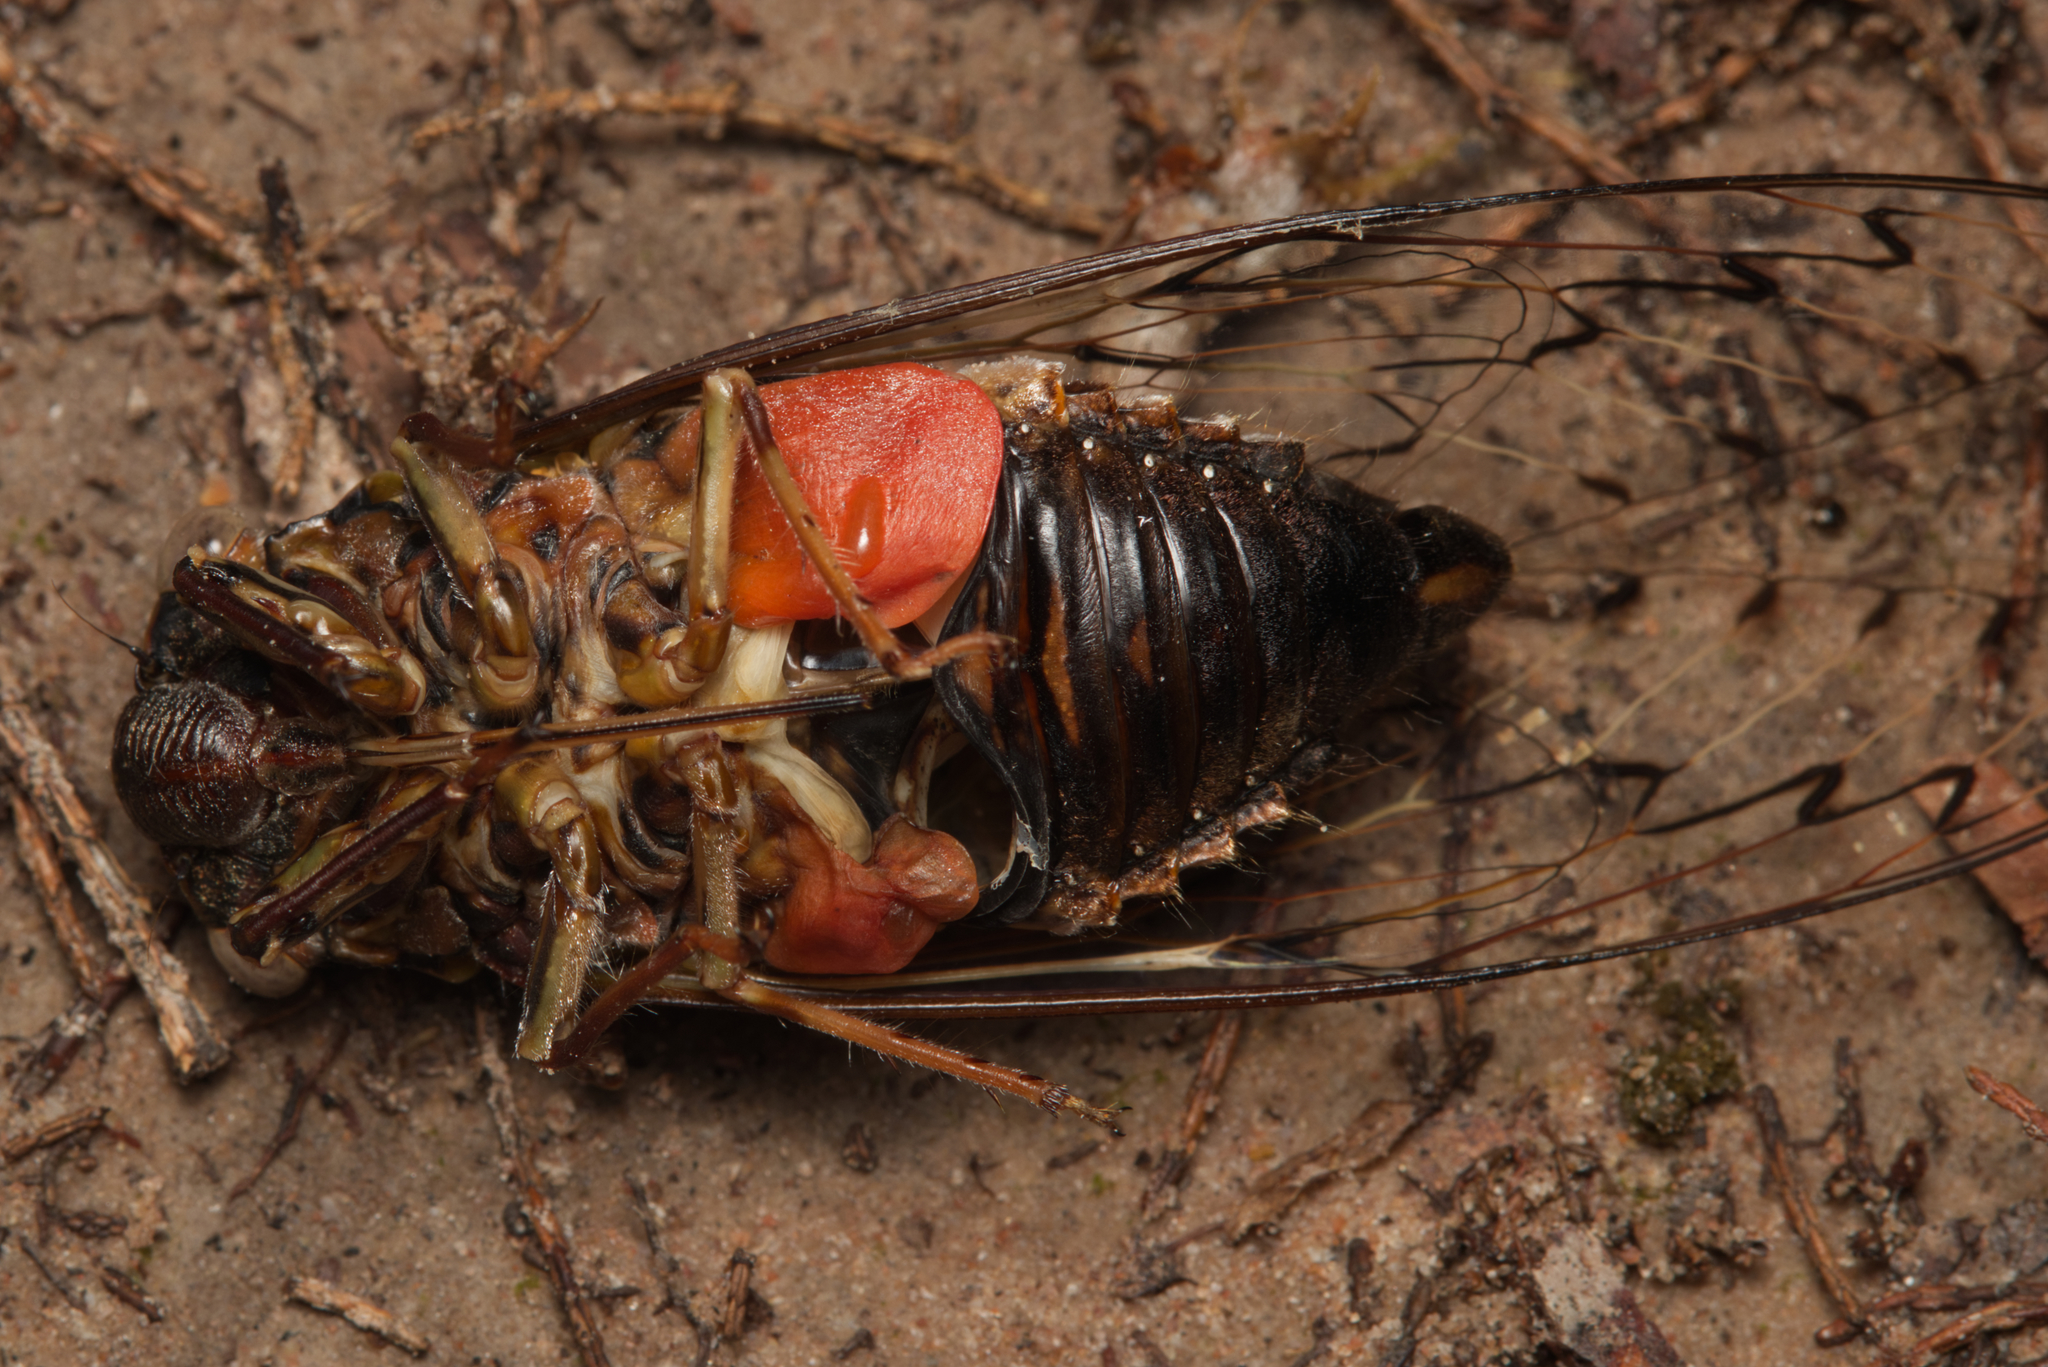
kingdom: Animalia
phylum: Arthropoda
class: Insecta
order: Hemiptera
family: Cicadidae
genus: Henicopsaltria
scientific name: Henicopsaltria eydouxii
